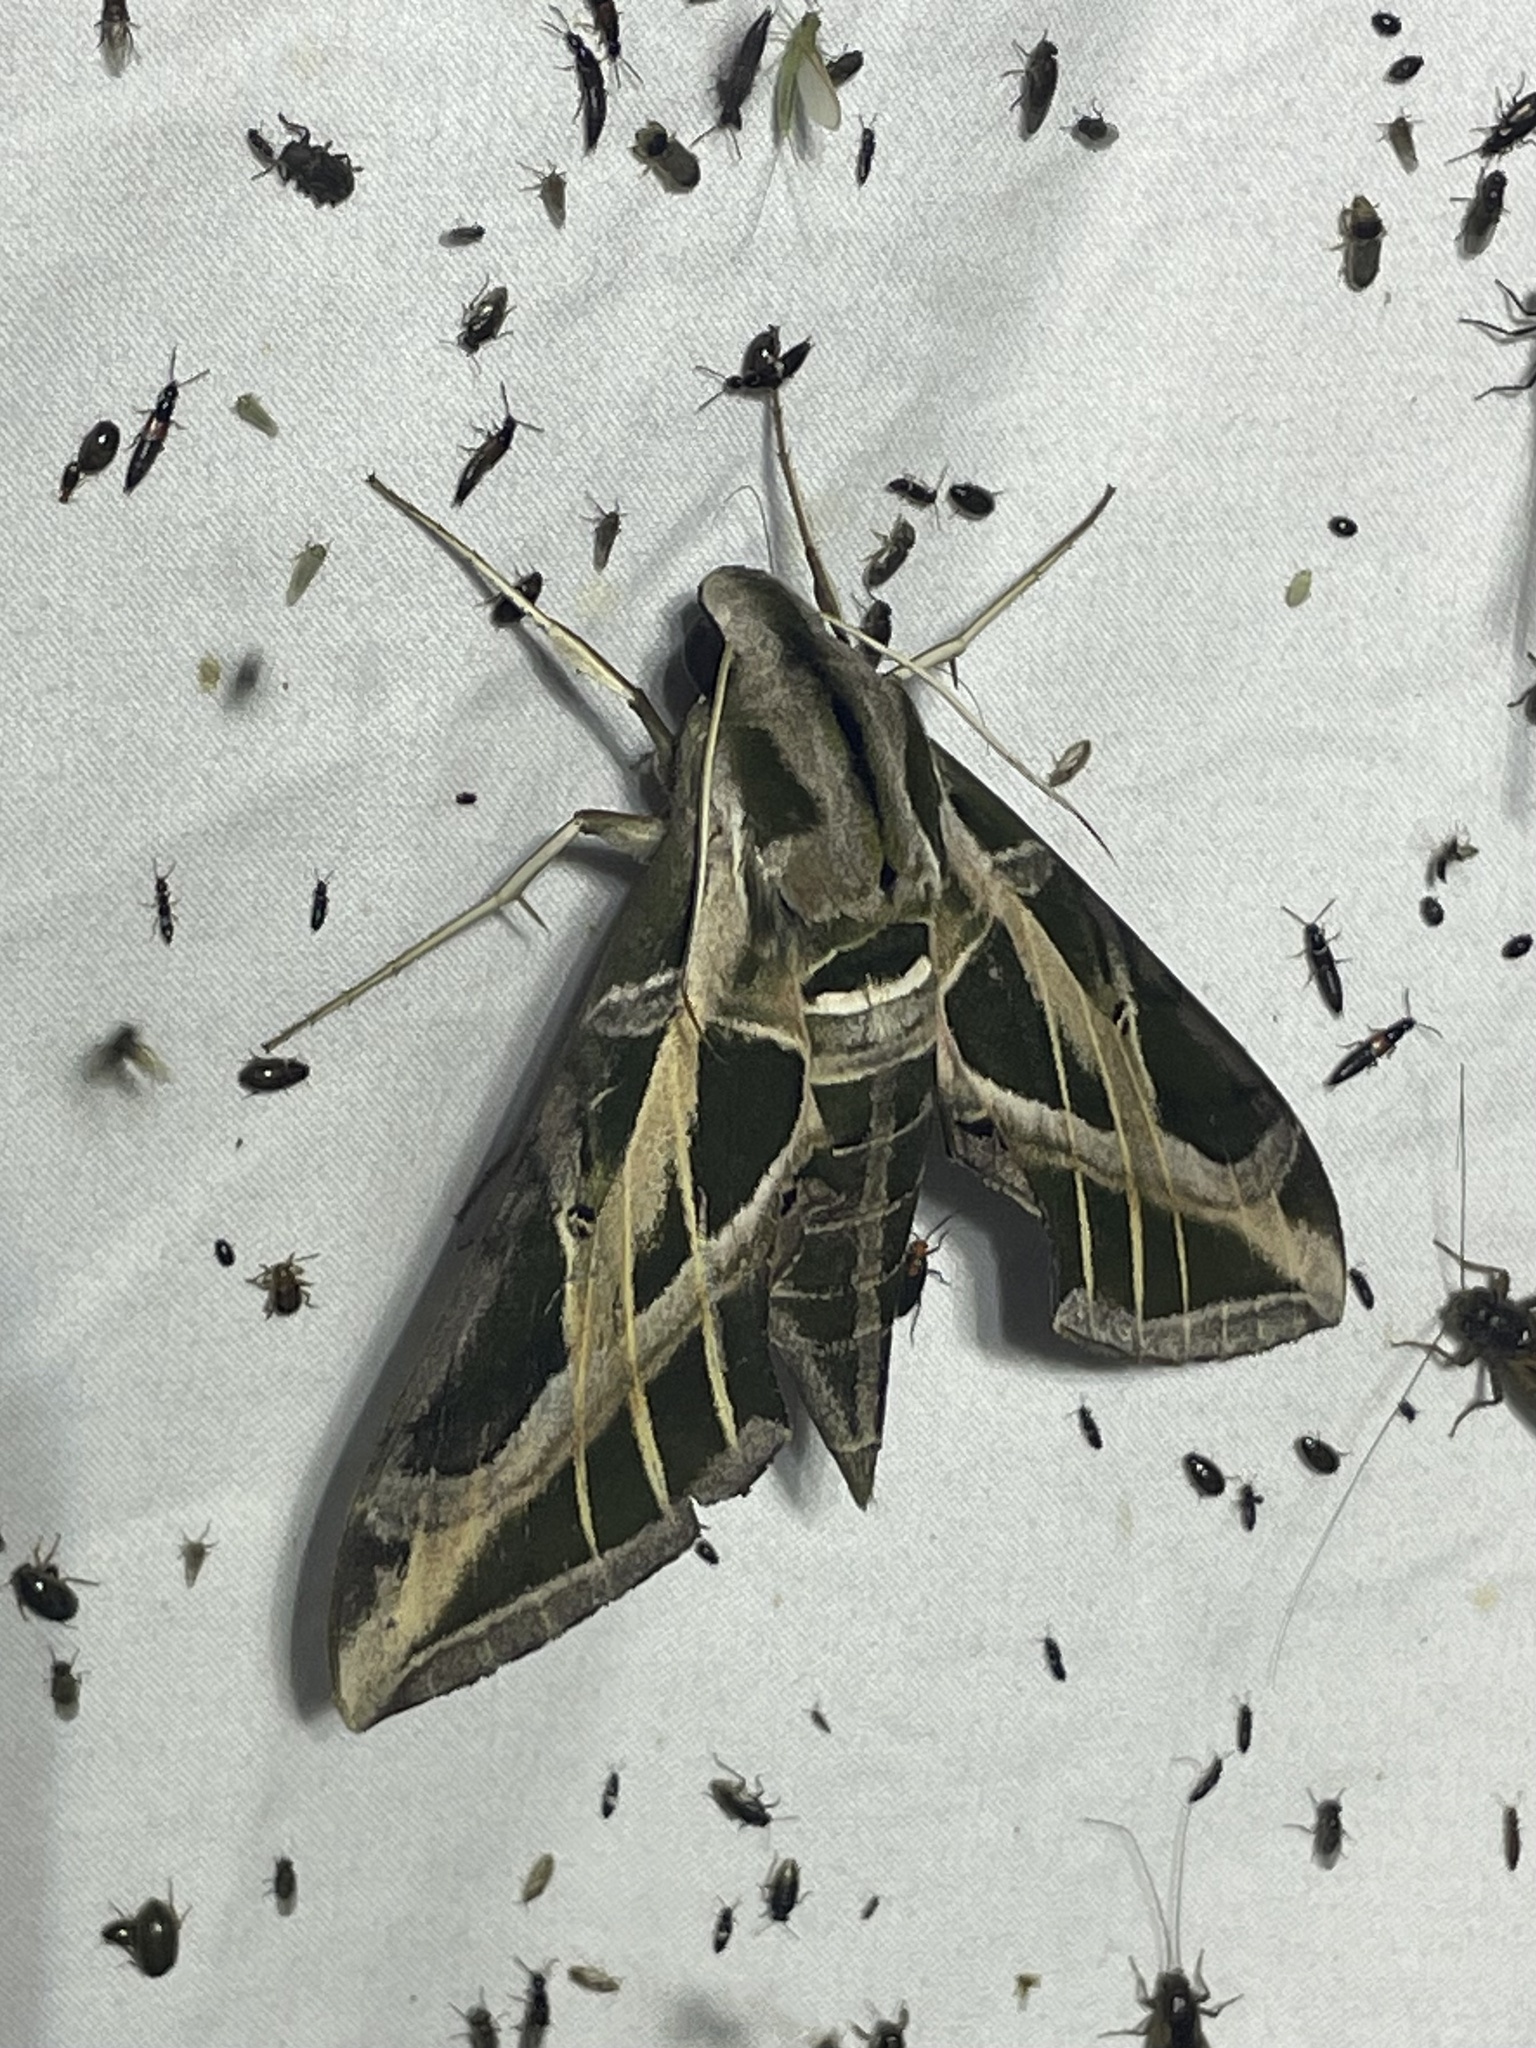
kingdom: Animalia
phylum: Arthropoda
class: Insecta
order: Lepidoptera
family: Sphingidae
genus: Eumorpha
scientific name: Eumorpha vitis
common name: Vine sphinx
